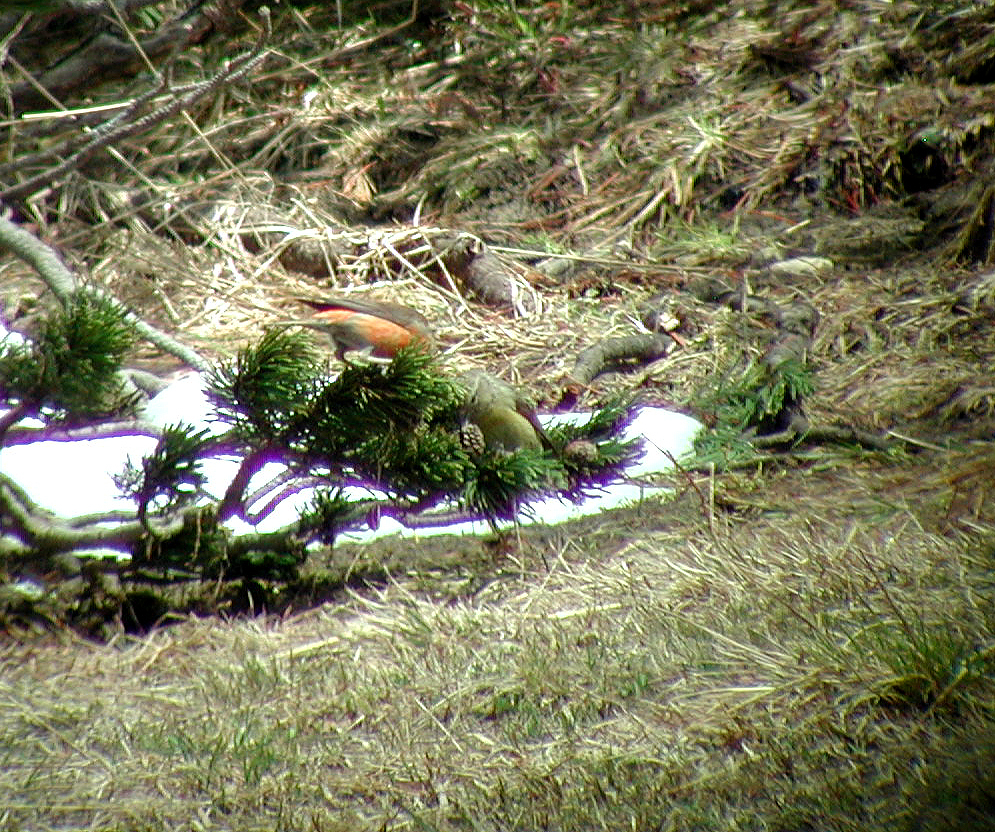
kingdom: Animalia
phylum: Chordata
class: Aves
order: Passeriformes
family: Fringillidae
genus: Loxia
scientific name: Loxia curvirostra
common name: Red crossbill
